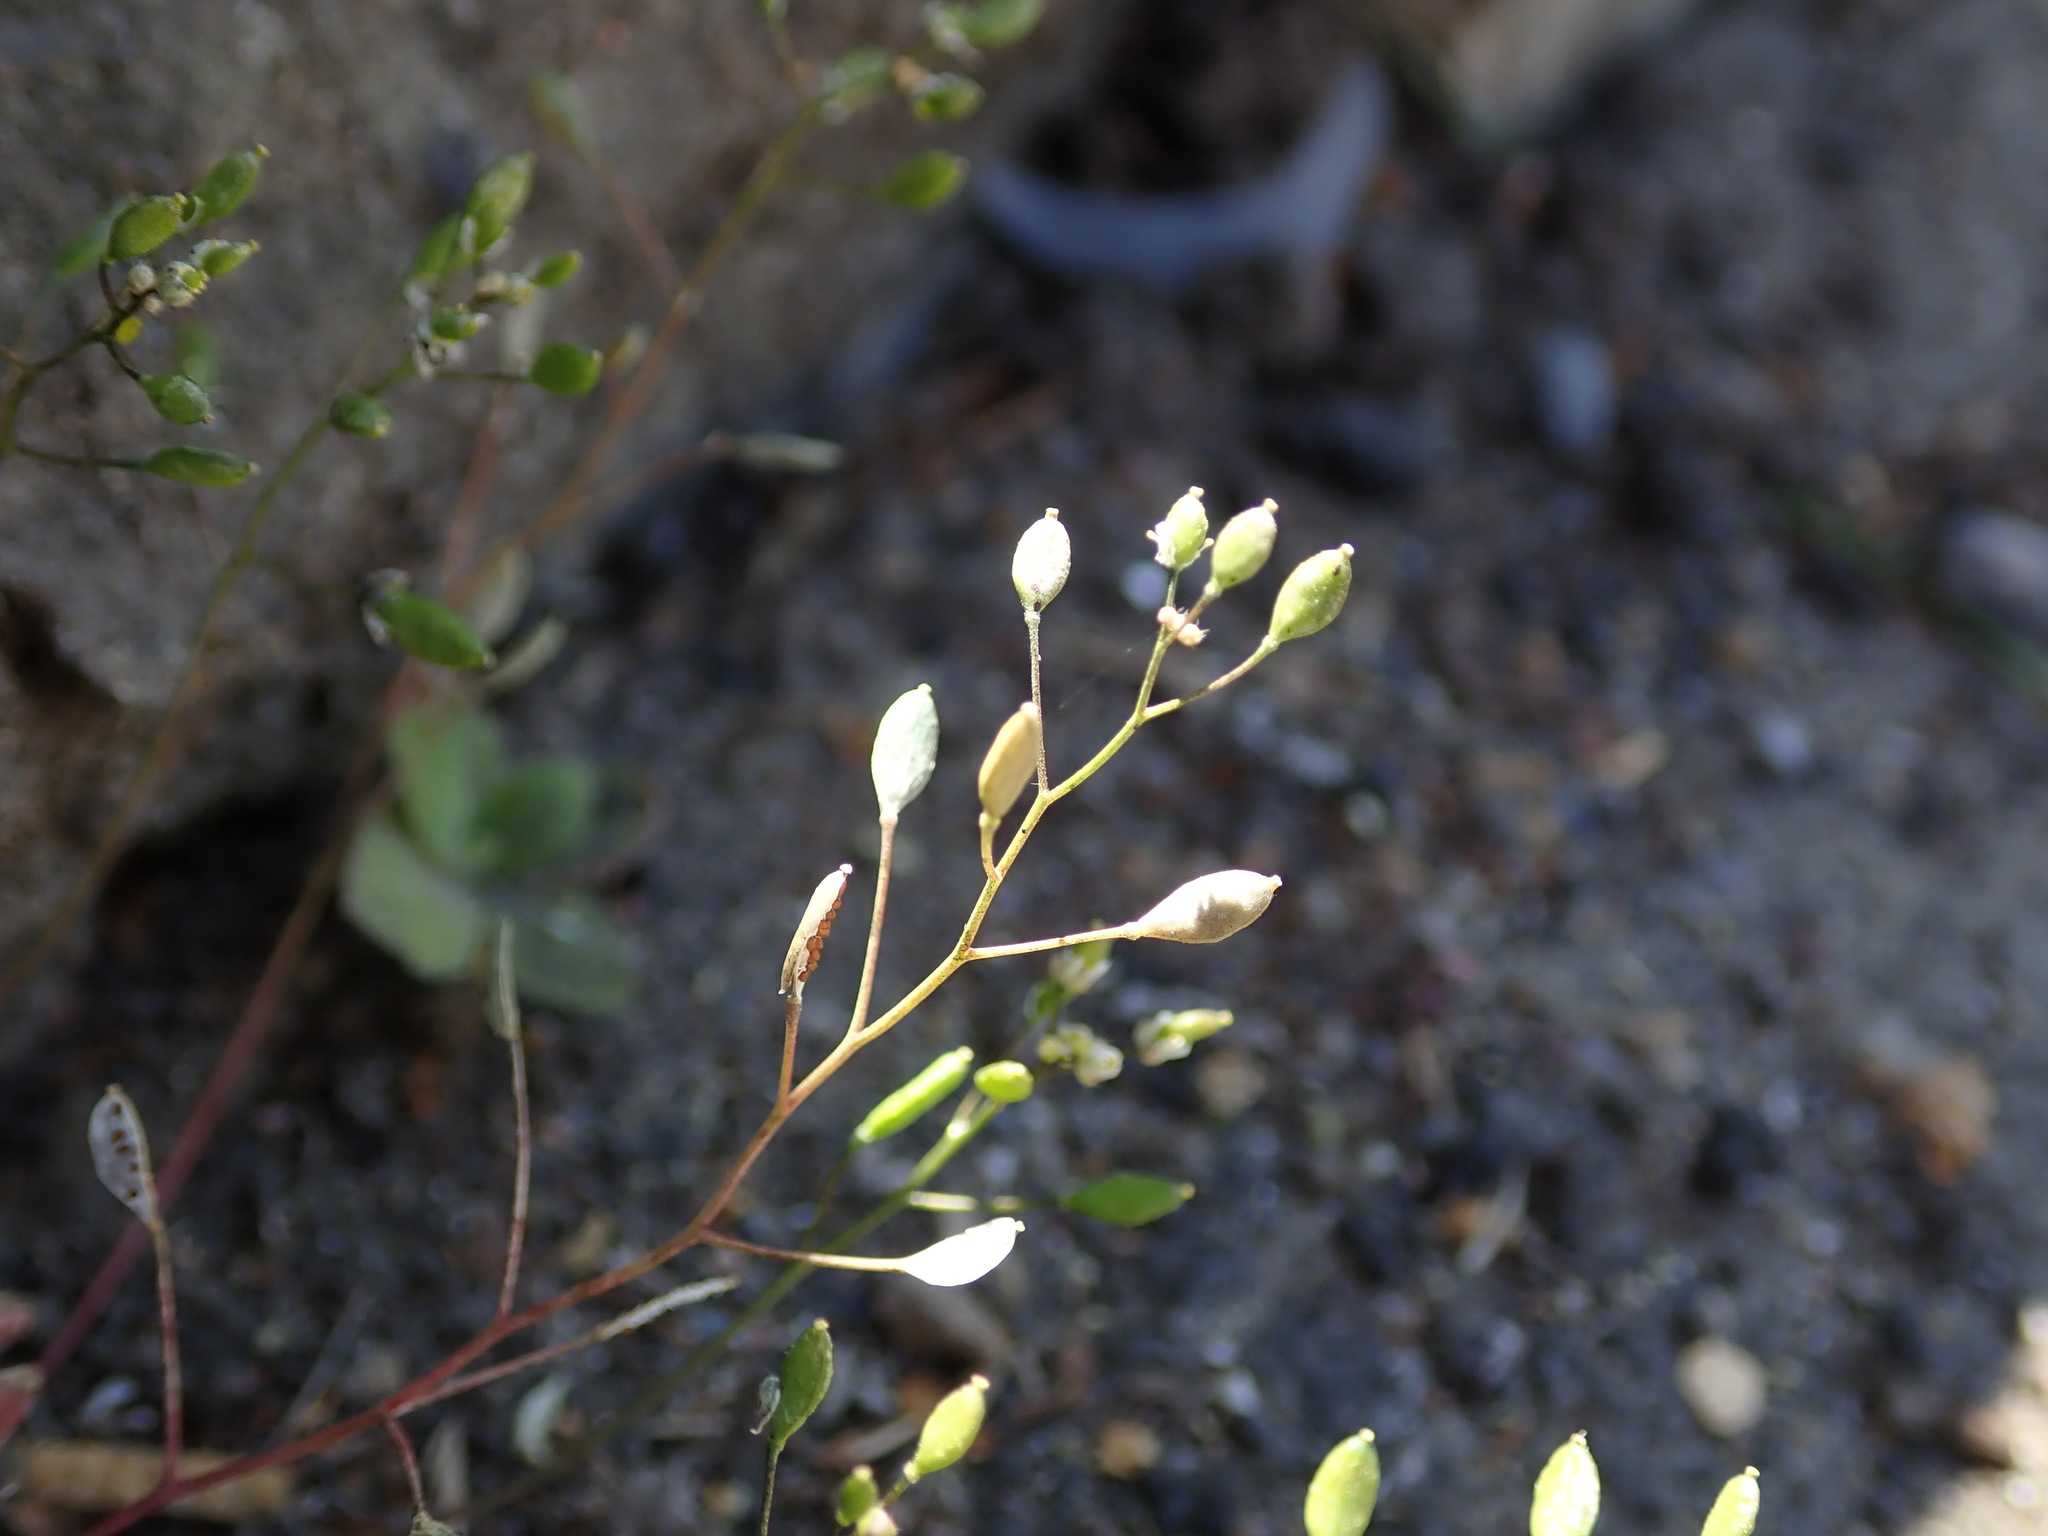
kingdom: Plantae
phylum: Tracheophyta
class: Magnoliopsida
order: Brassicales
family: Brassicaceae
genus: Draba
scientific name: Draba verna
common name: Spring draba
